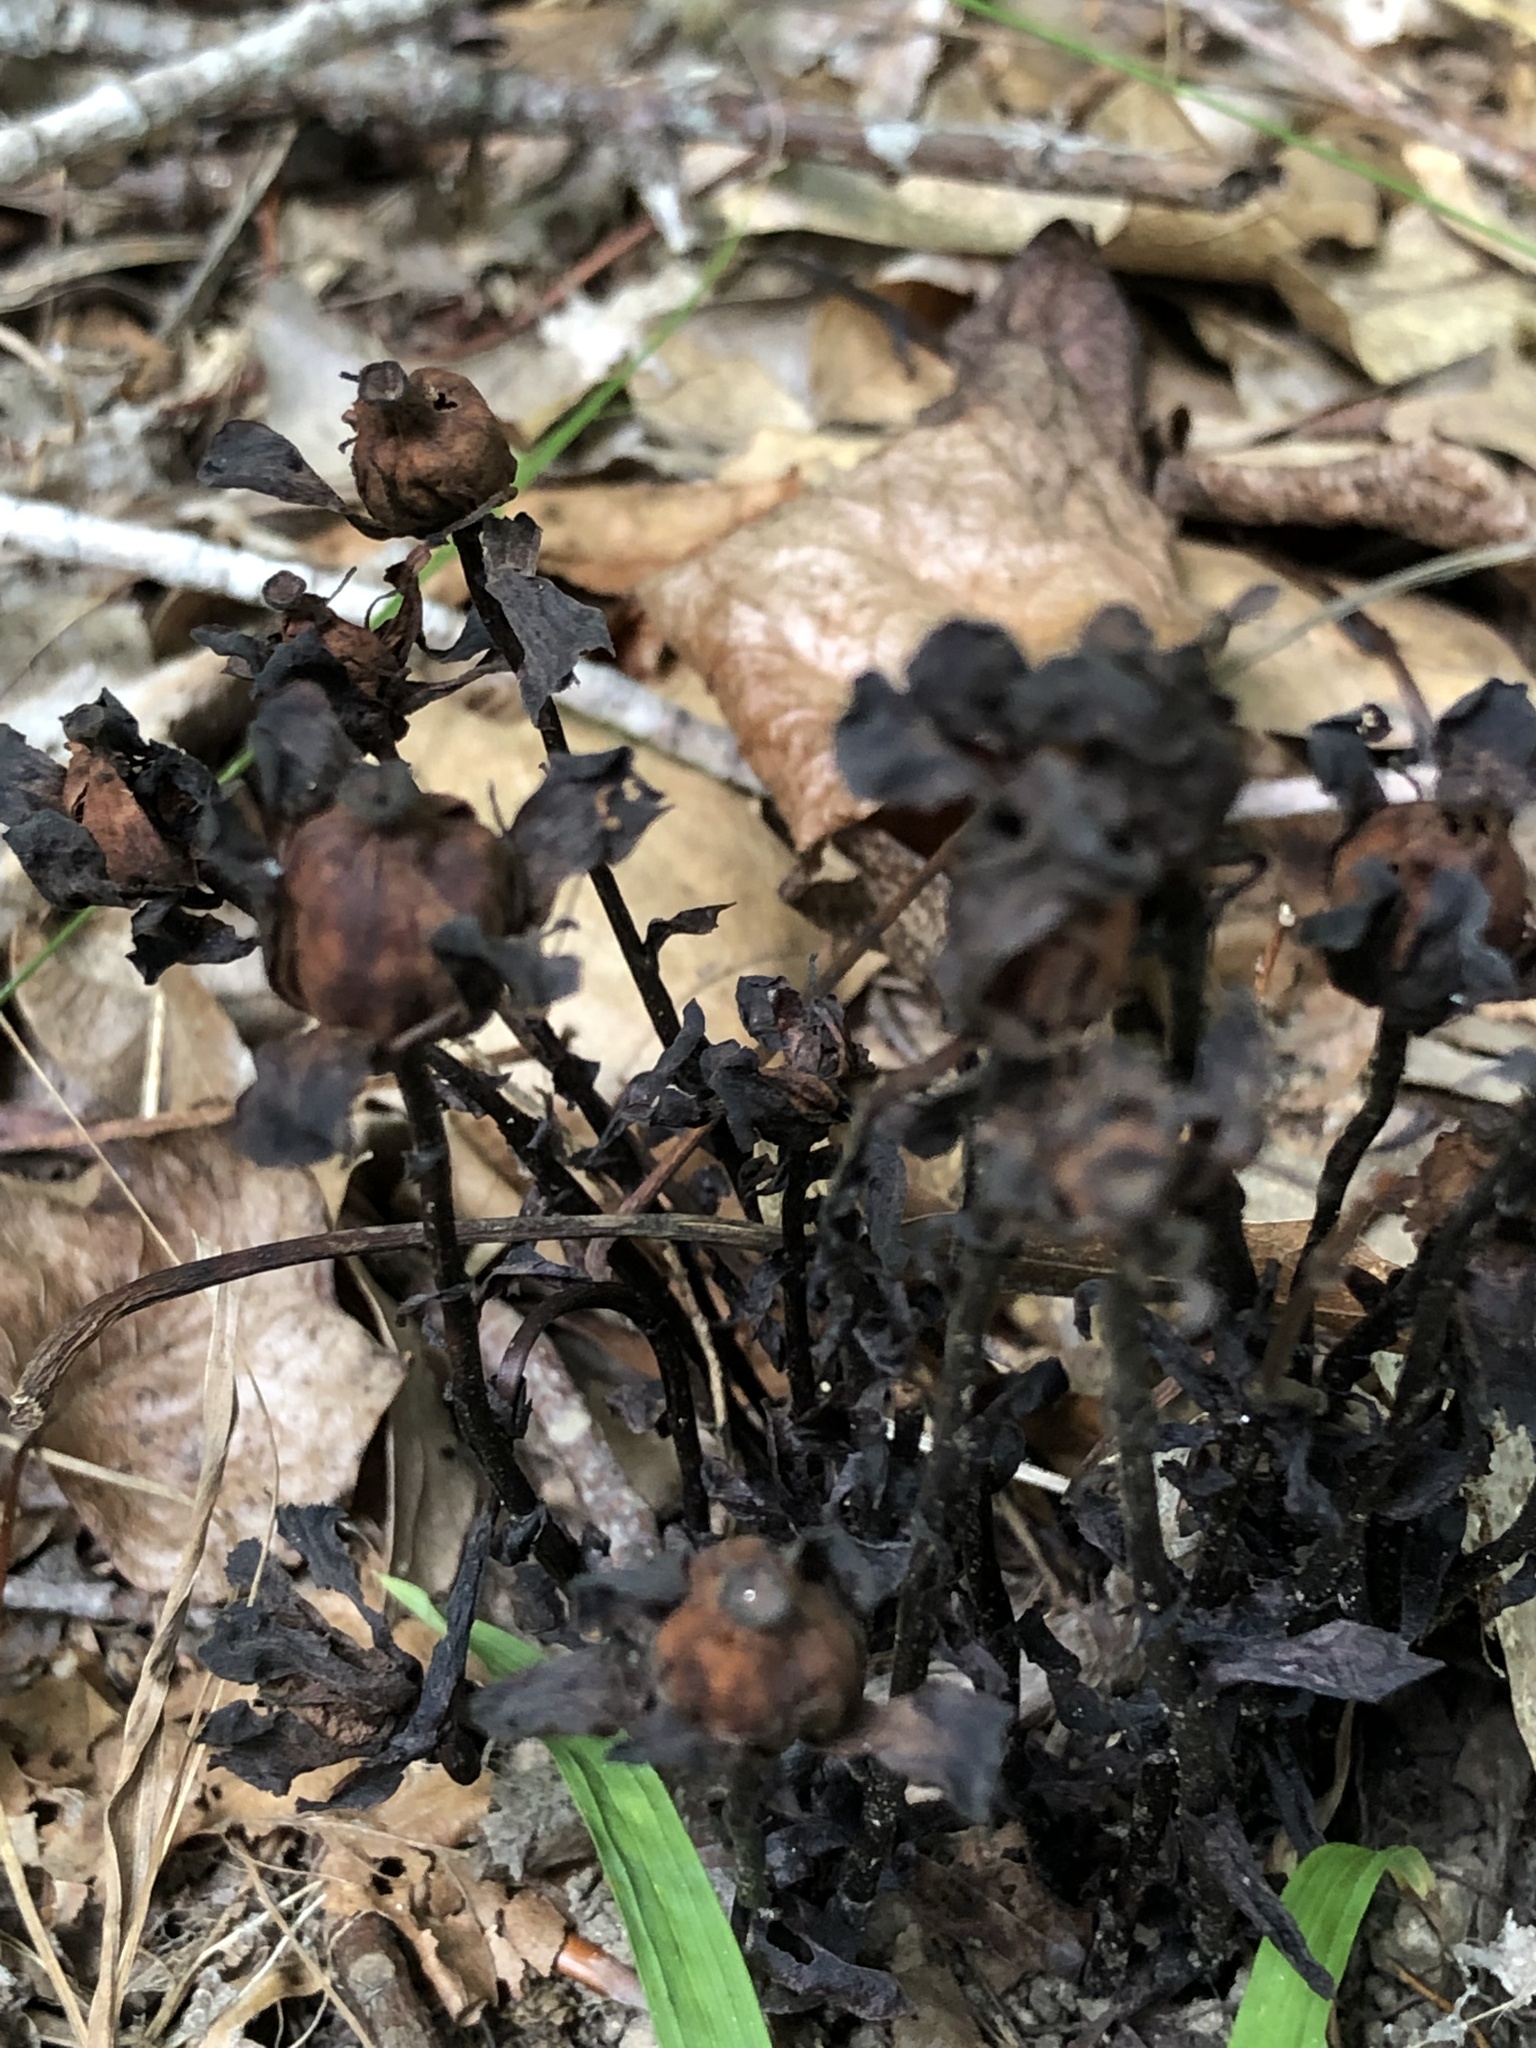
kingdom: Plantae
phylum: Tracheophyta
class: Magnoliopsida
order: Ericales
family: Ericaceae
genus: Monotropa
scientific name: Monotropa uniflora
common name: Convulsion root
